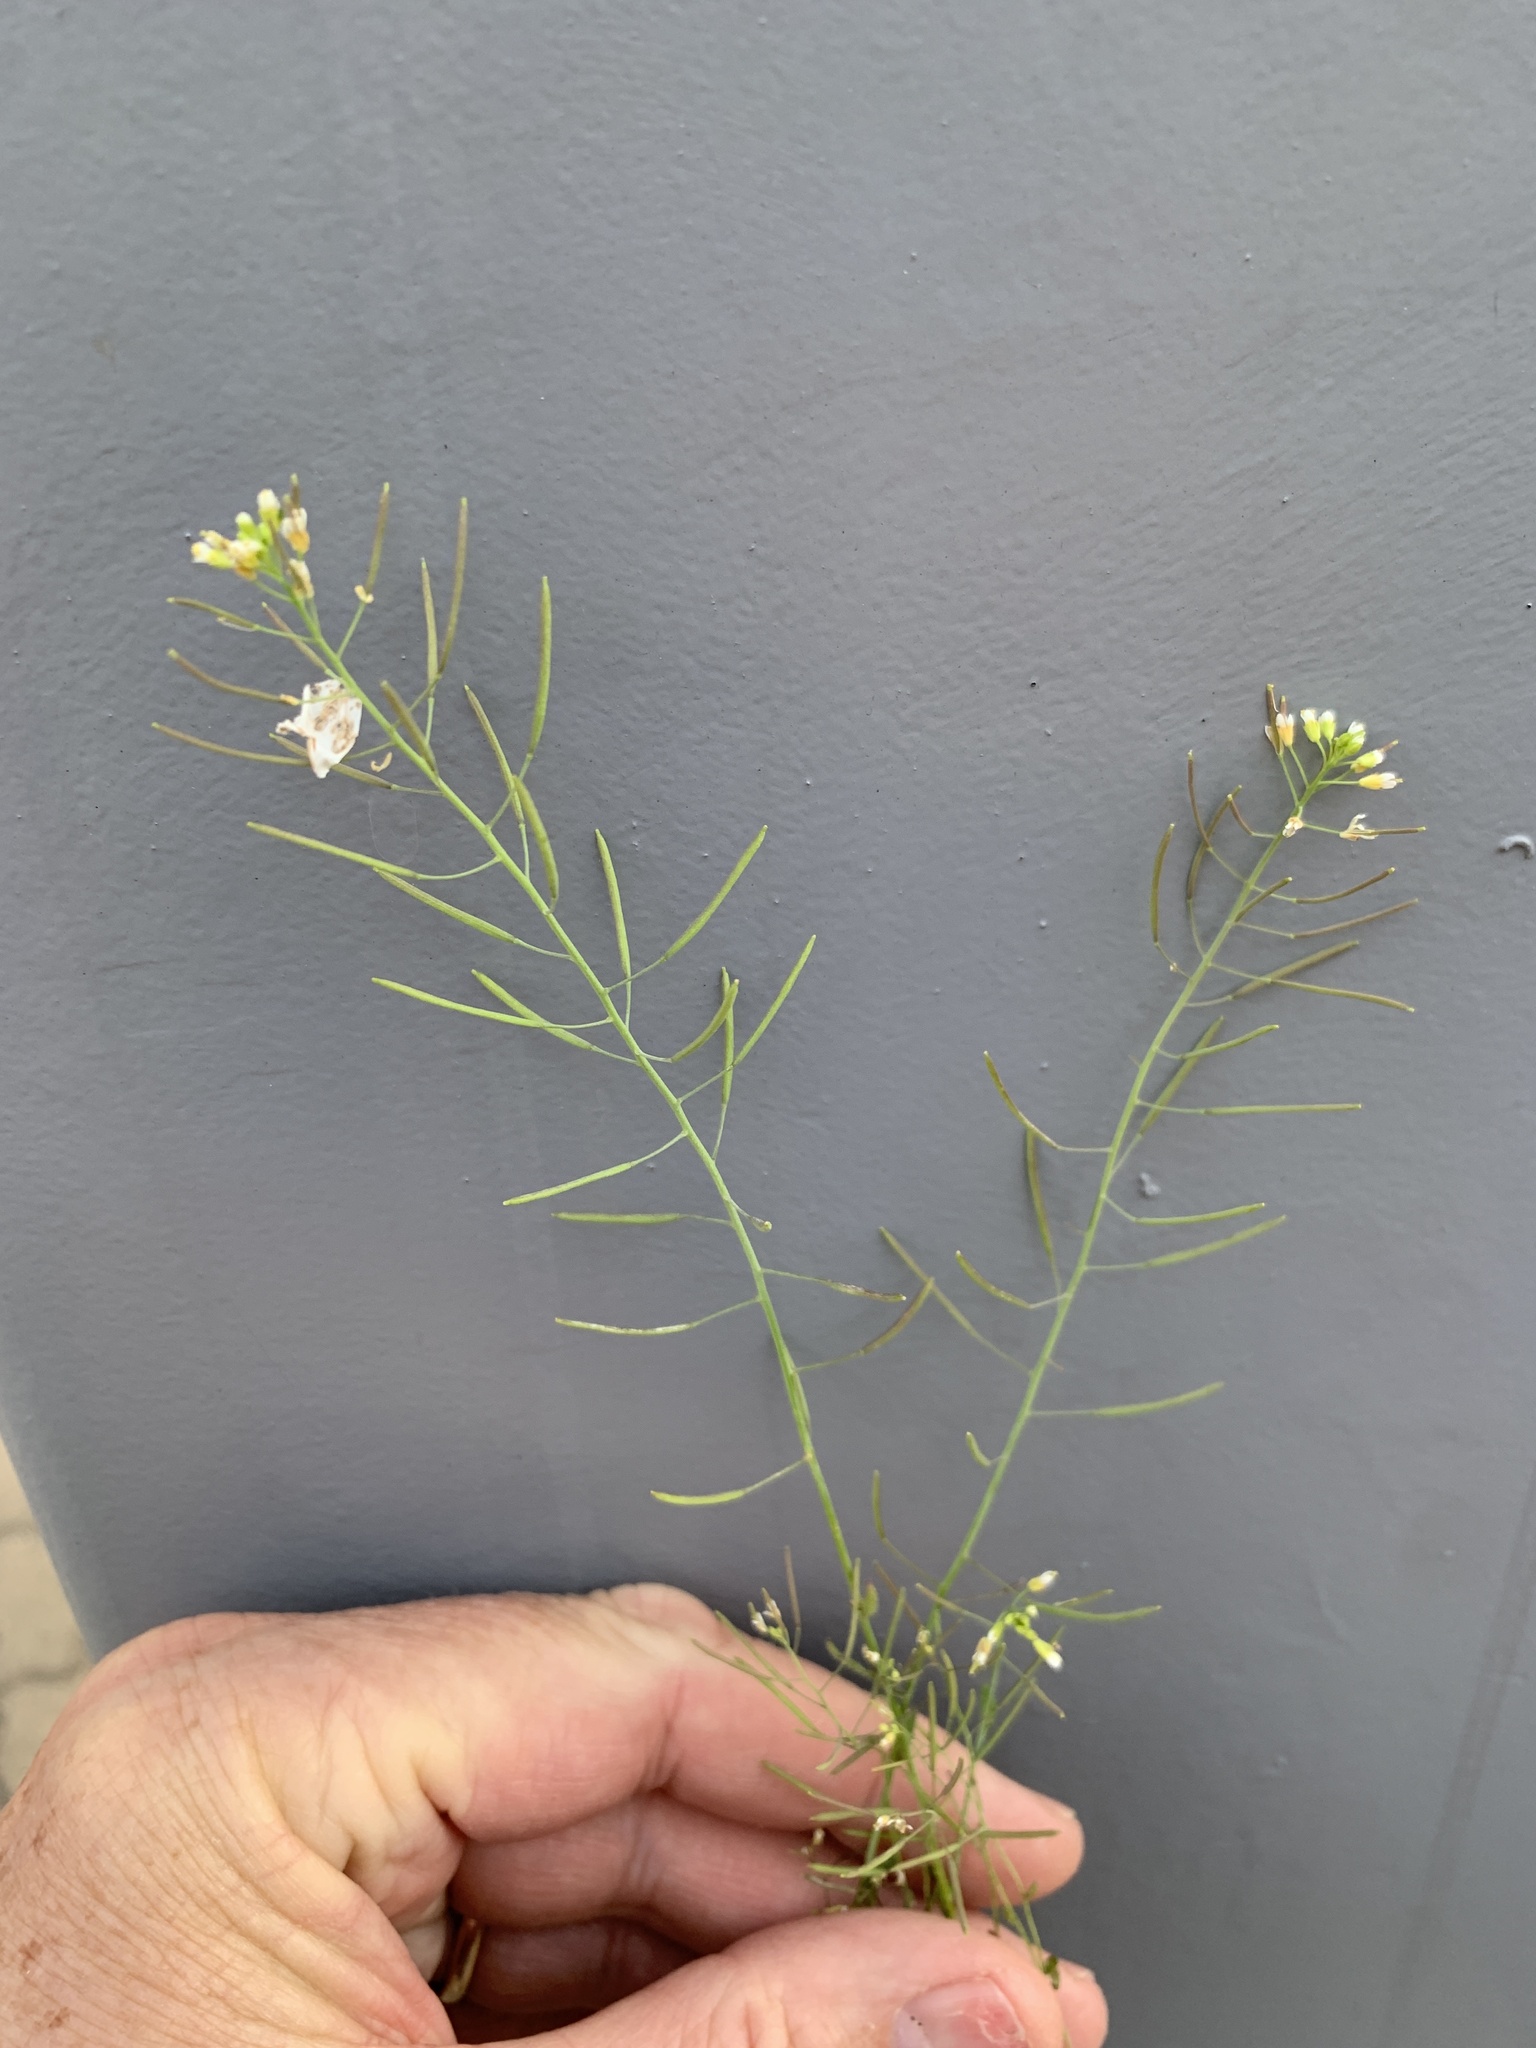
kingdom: Plantae
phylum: Tracheophyta
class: Magnoliopsida
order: Brassicales
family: Brassicaceae
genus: Arabidopsis
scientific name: Arabidopsis thaliana
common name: Thale cress
